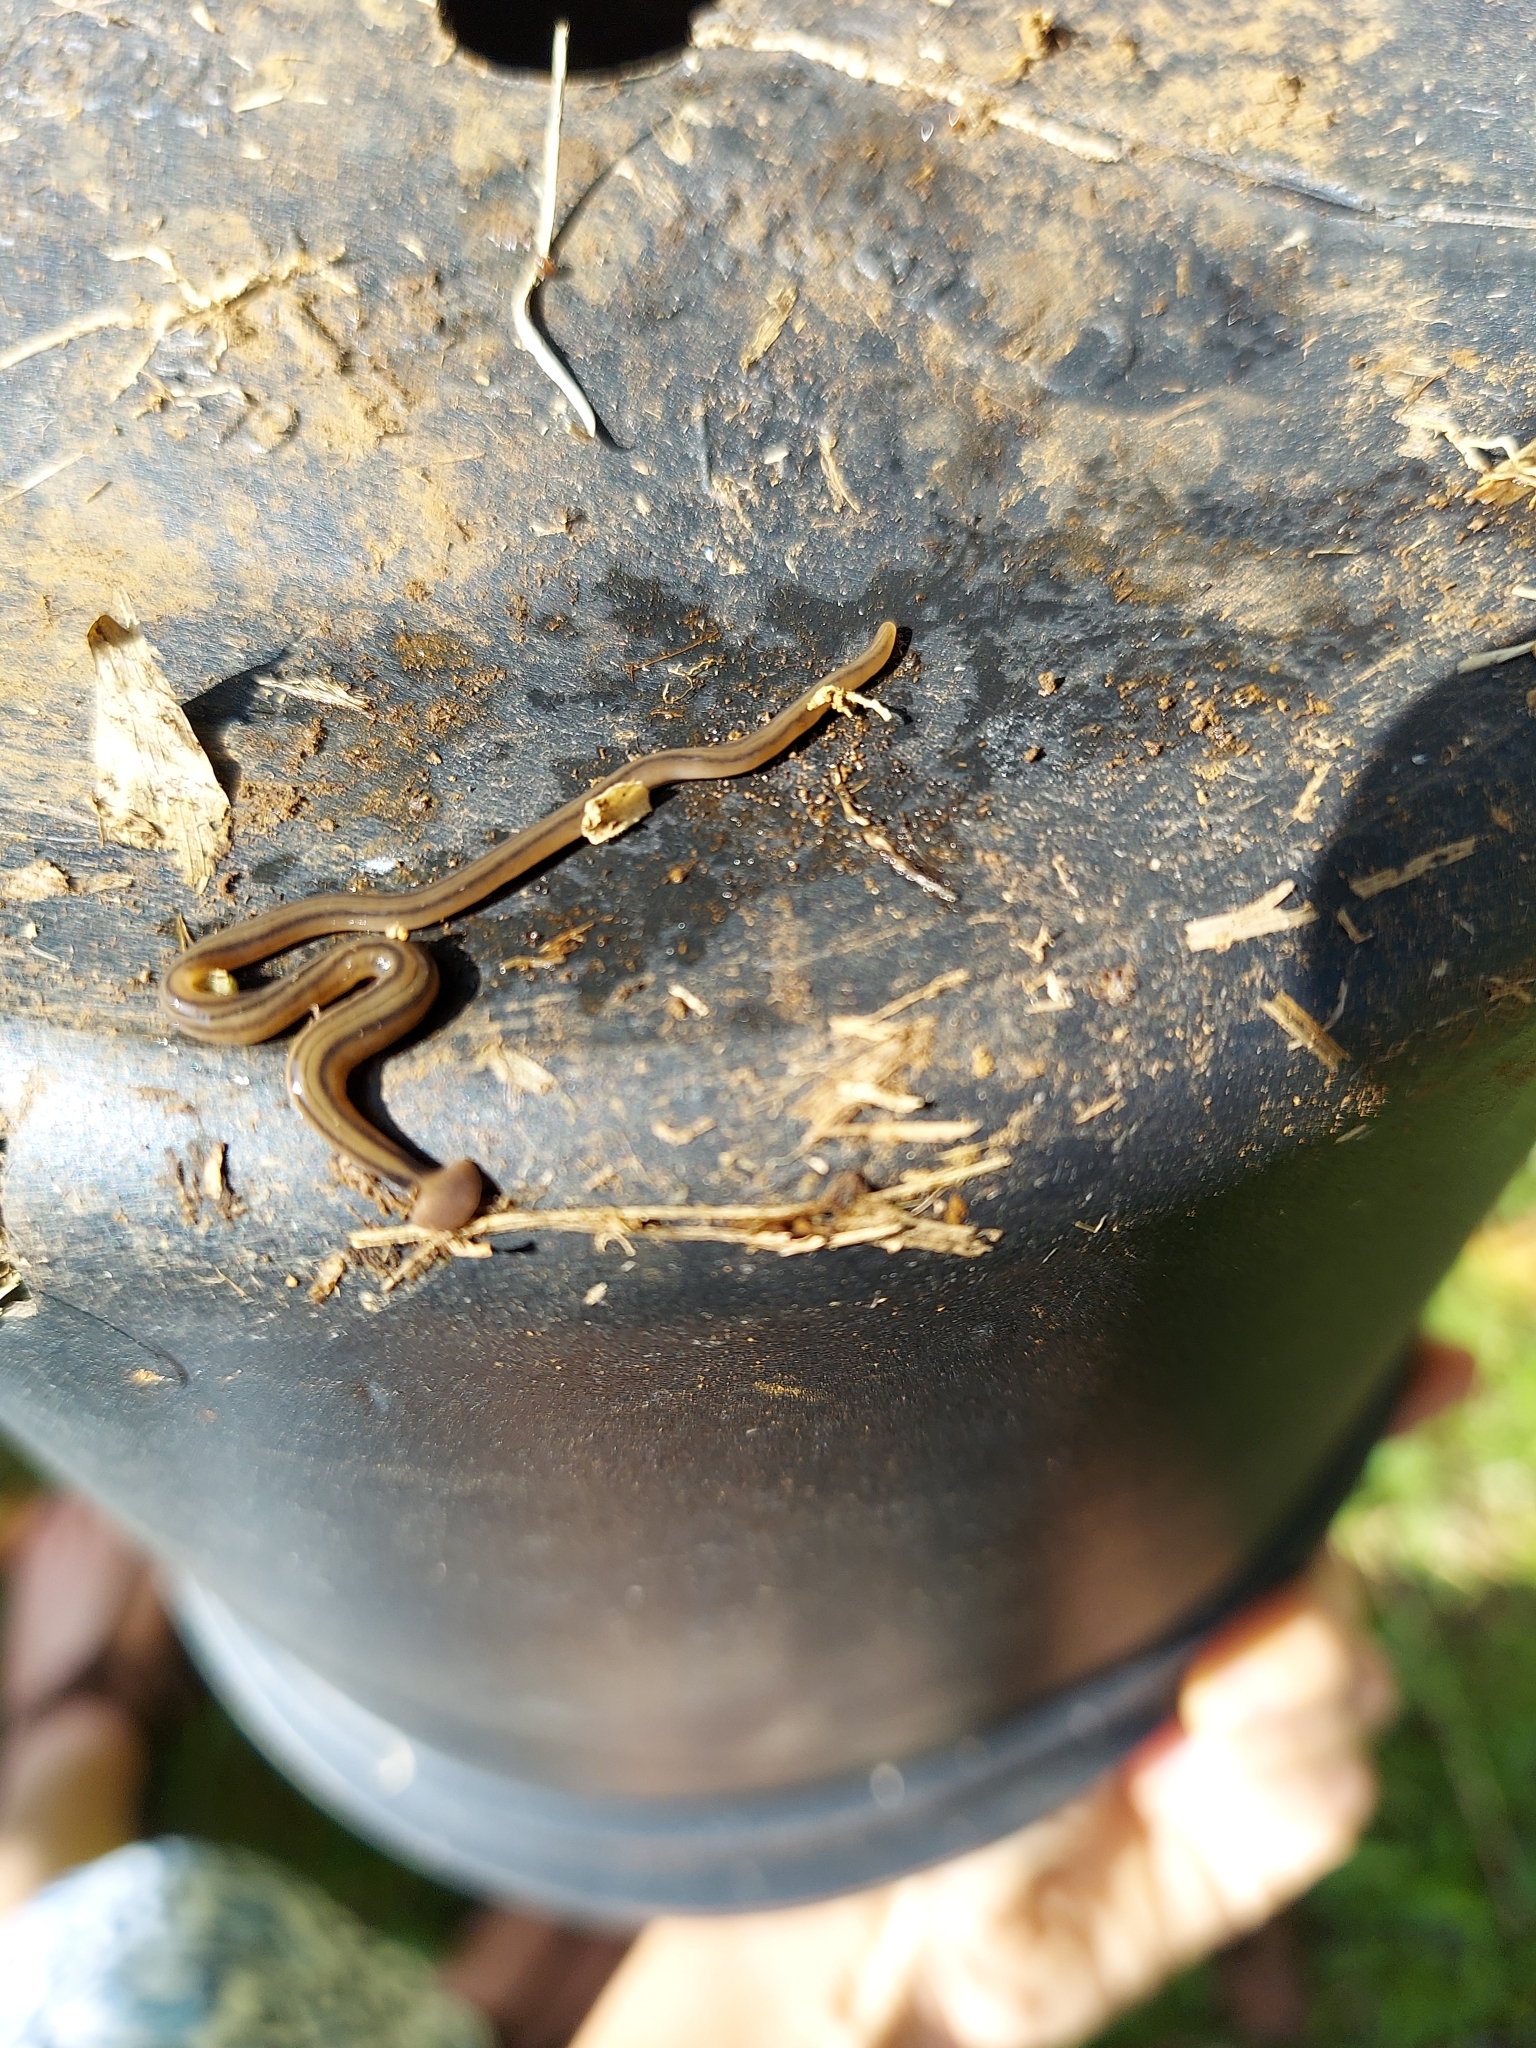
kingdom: Animalia
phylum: Platyhelminthes
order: Tricladida
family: Geoplanidae
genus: Bipalium
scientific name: Bipalium kewense
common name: Hammerhead flatworm
